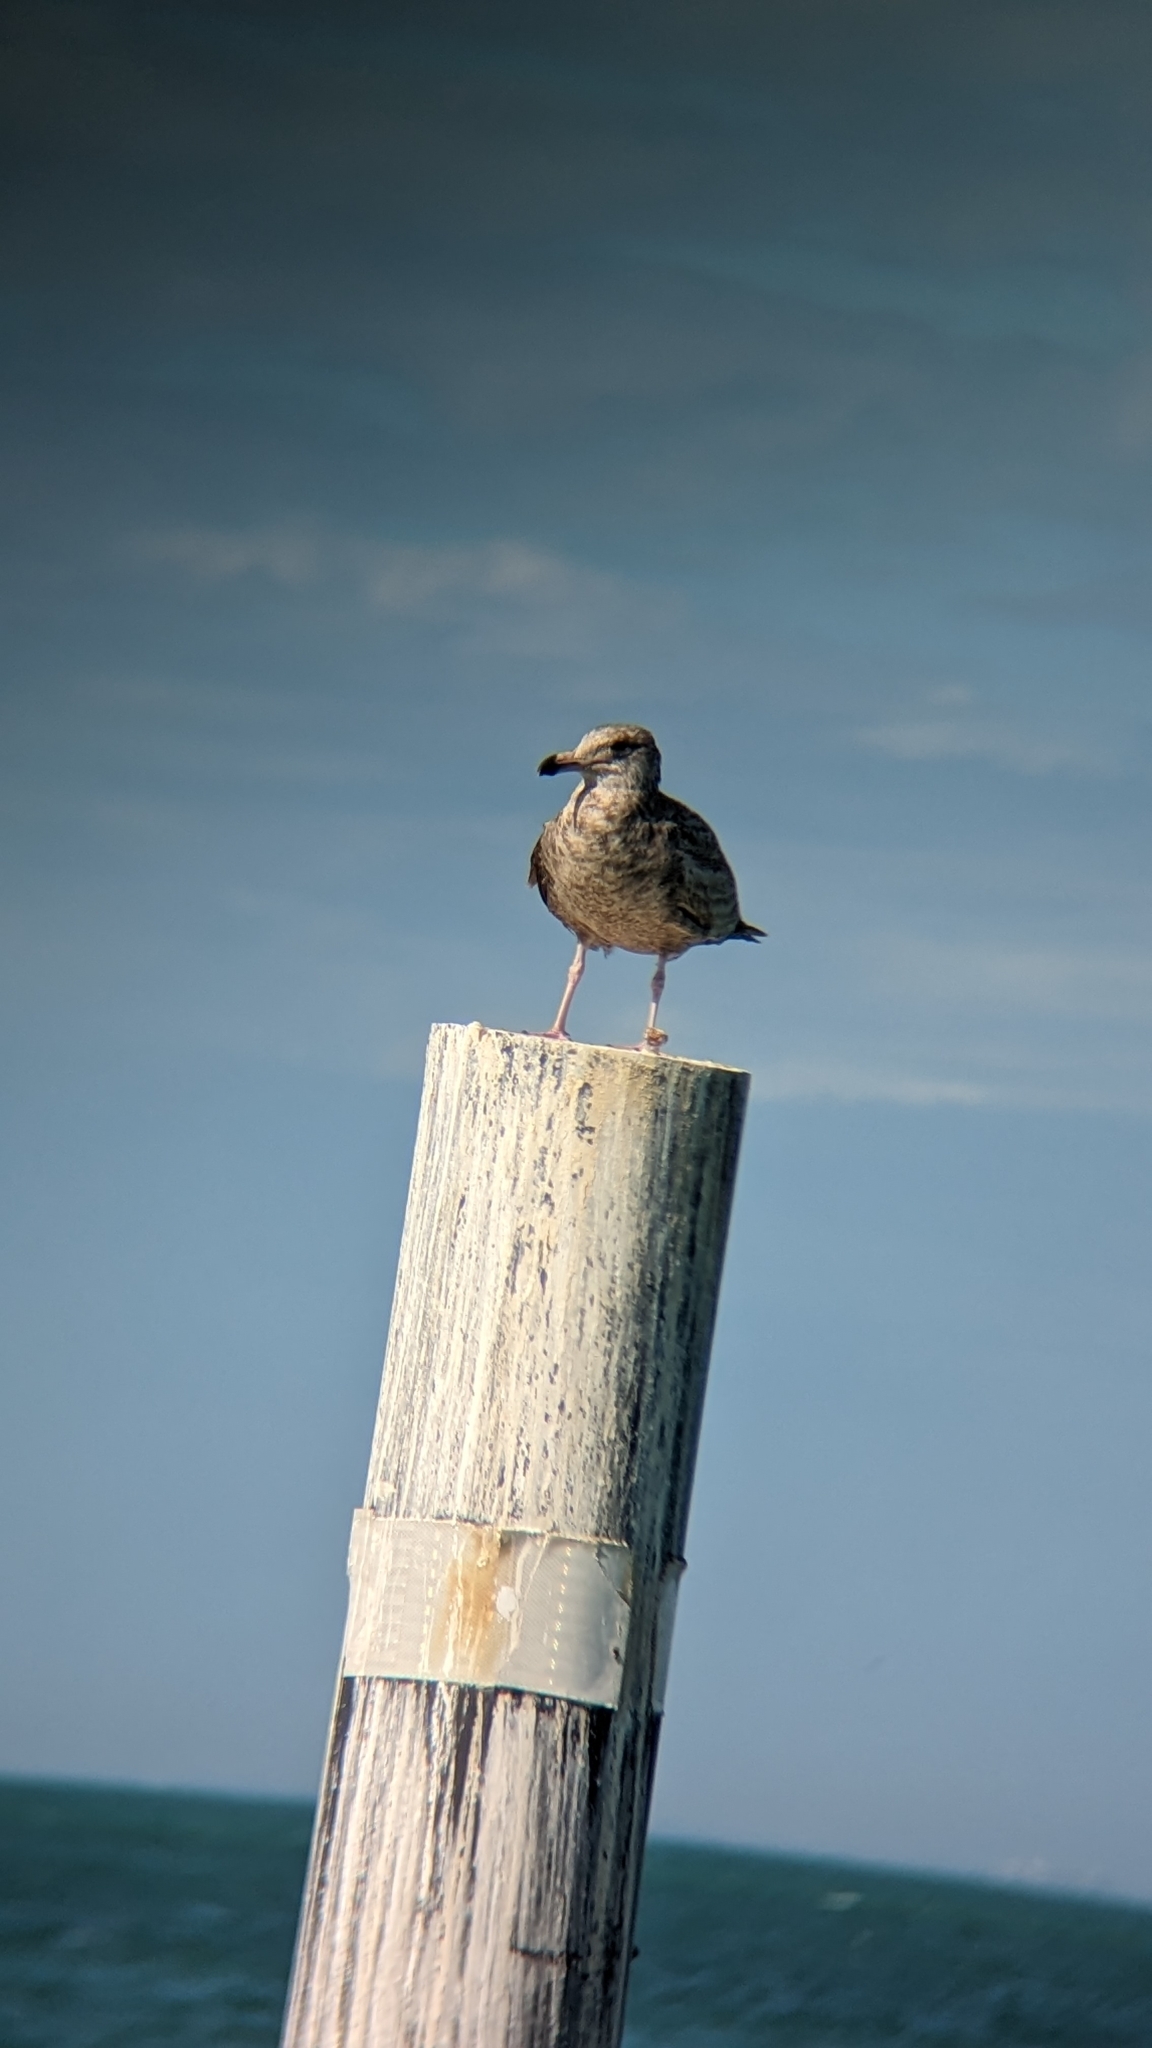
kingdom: Animalia
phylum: Chordata
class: Aves
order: Charadriiformes
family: Laridae
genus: Larus
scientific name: Larus smithsonianus
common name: American herring gull
